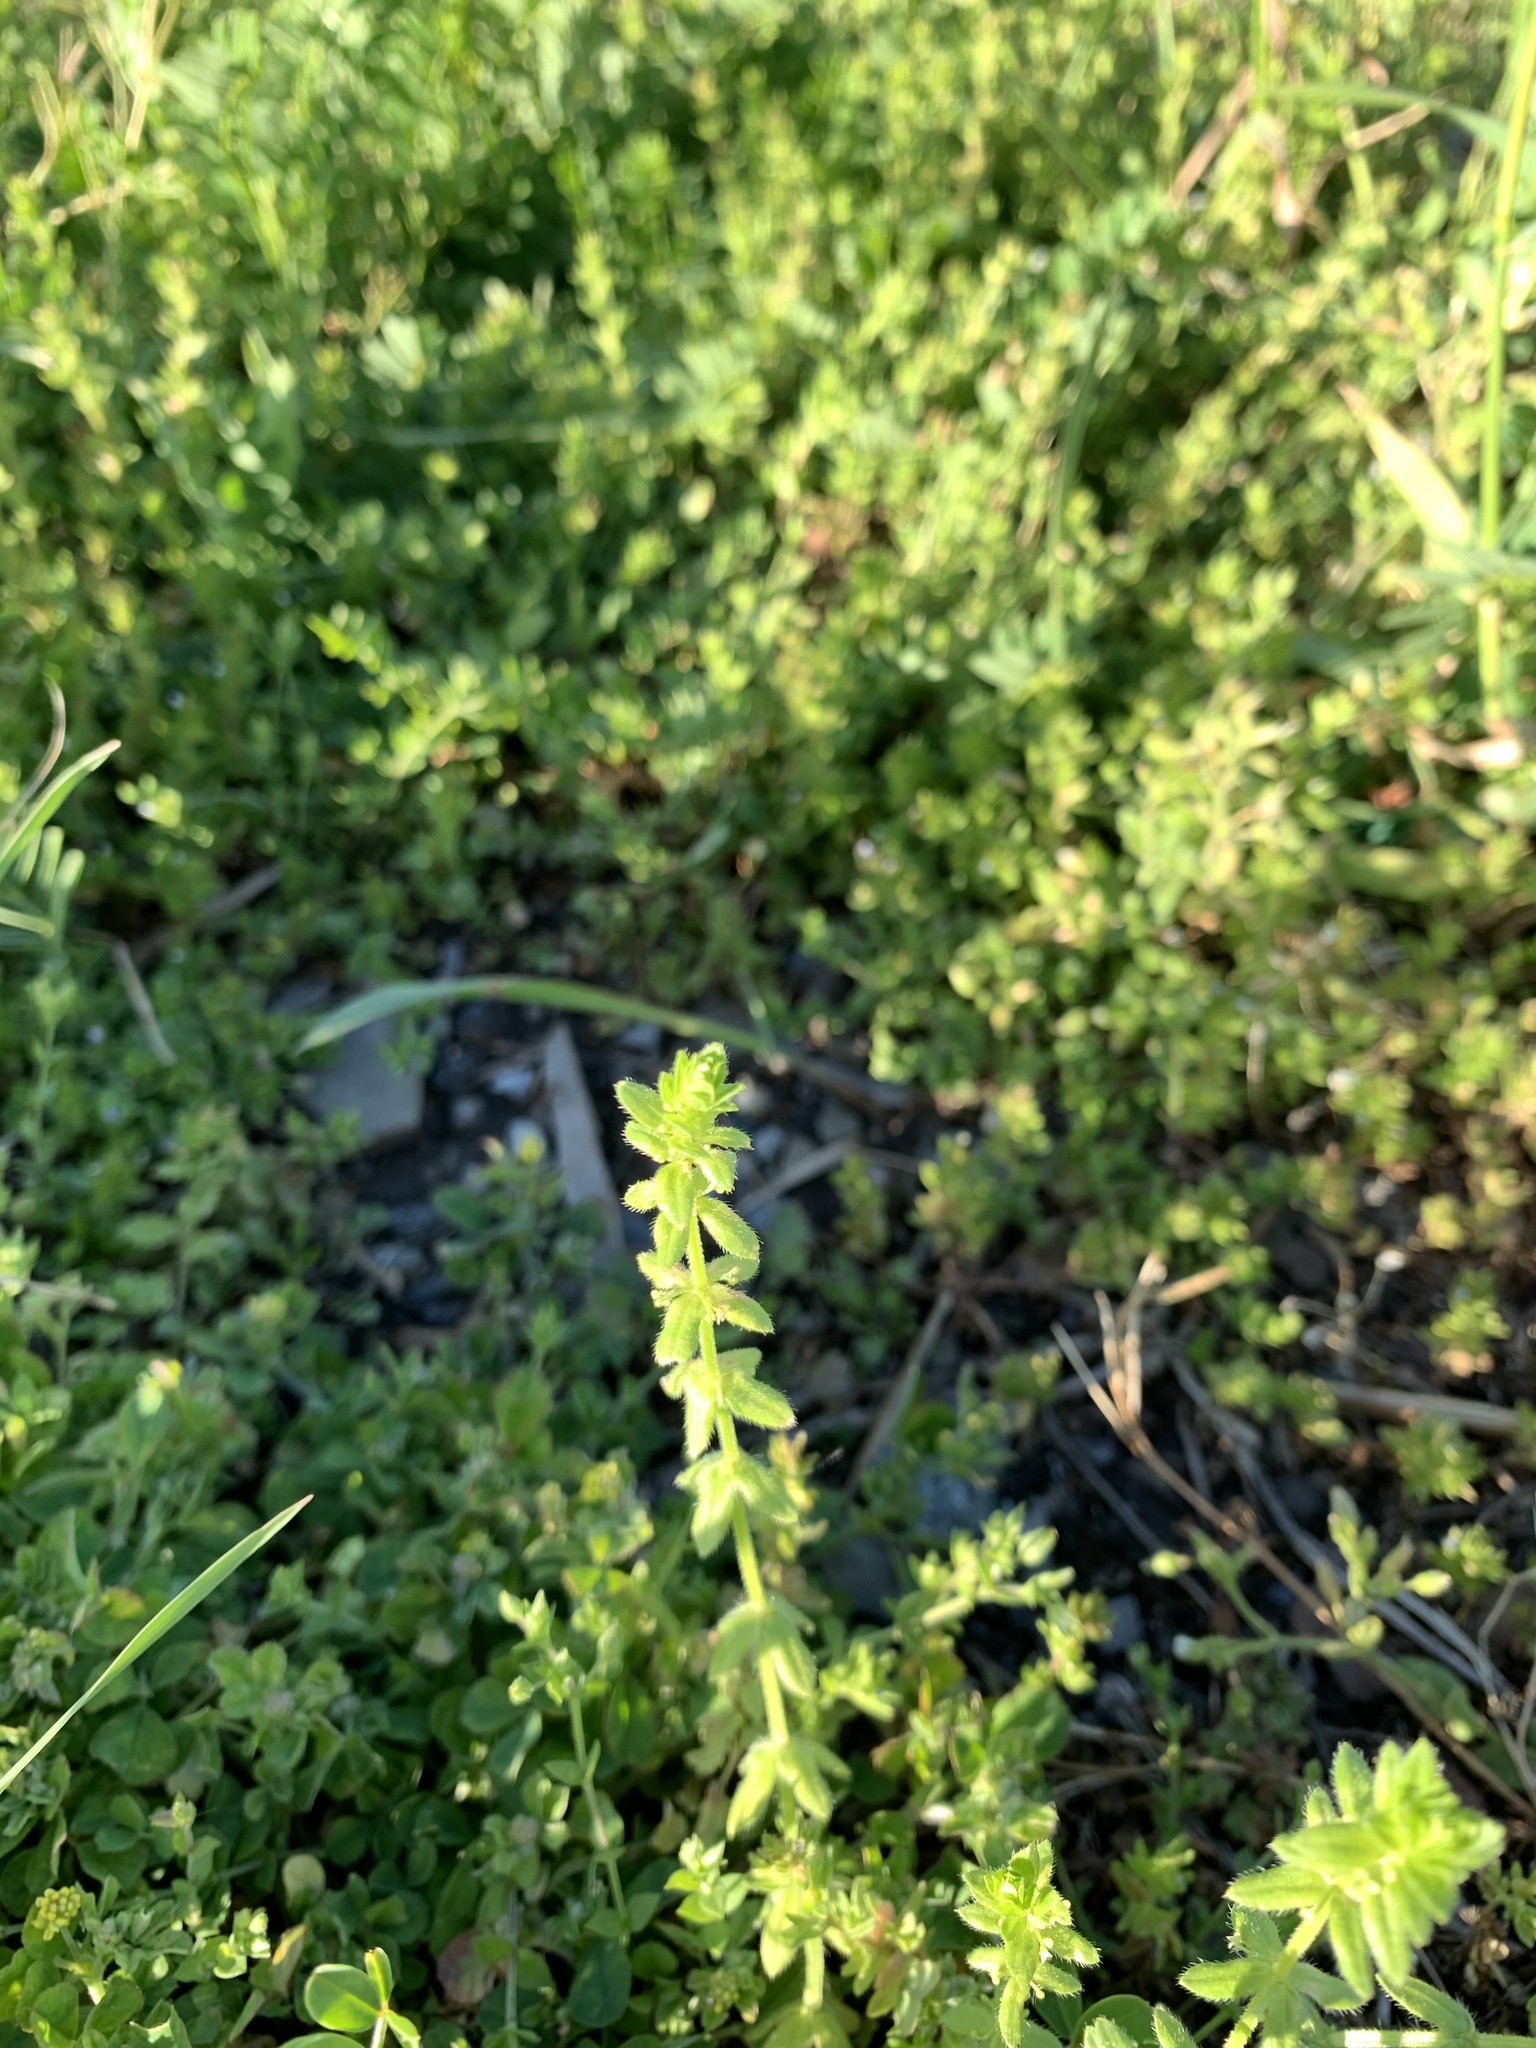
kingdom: Plantae
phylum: Tracheophyta
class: Magnoliopsida
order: Gentianales
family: Rubiaceae
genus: Cruciata
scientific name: Cruciata pedemontana
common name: Piedmont bedstraw
